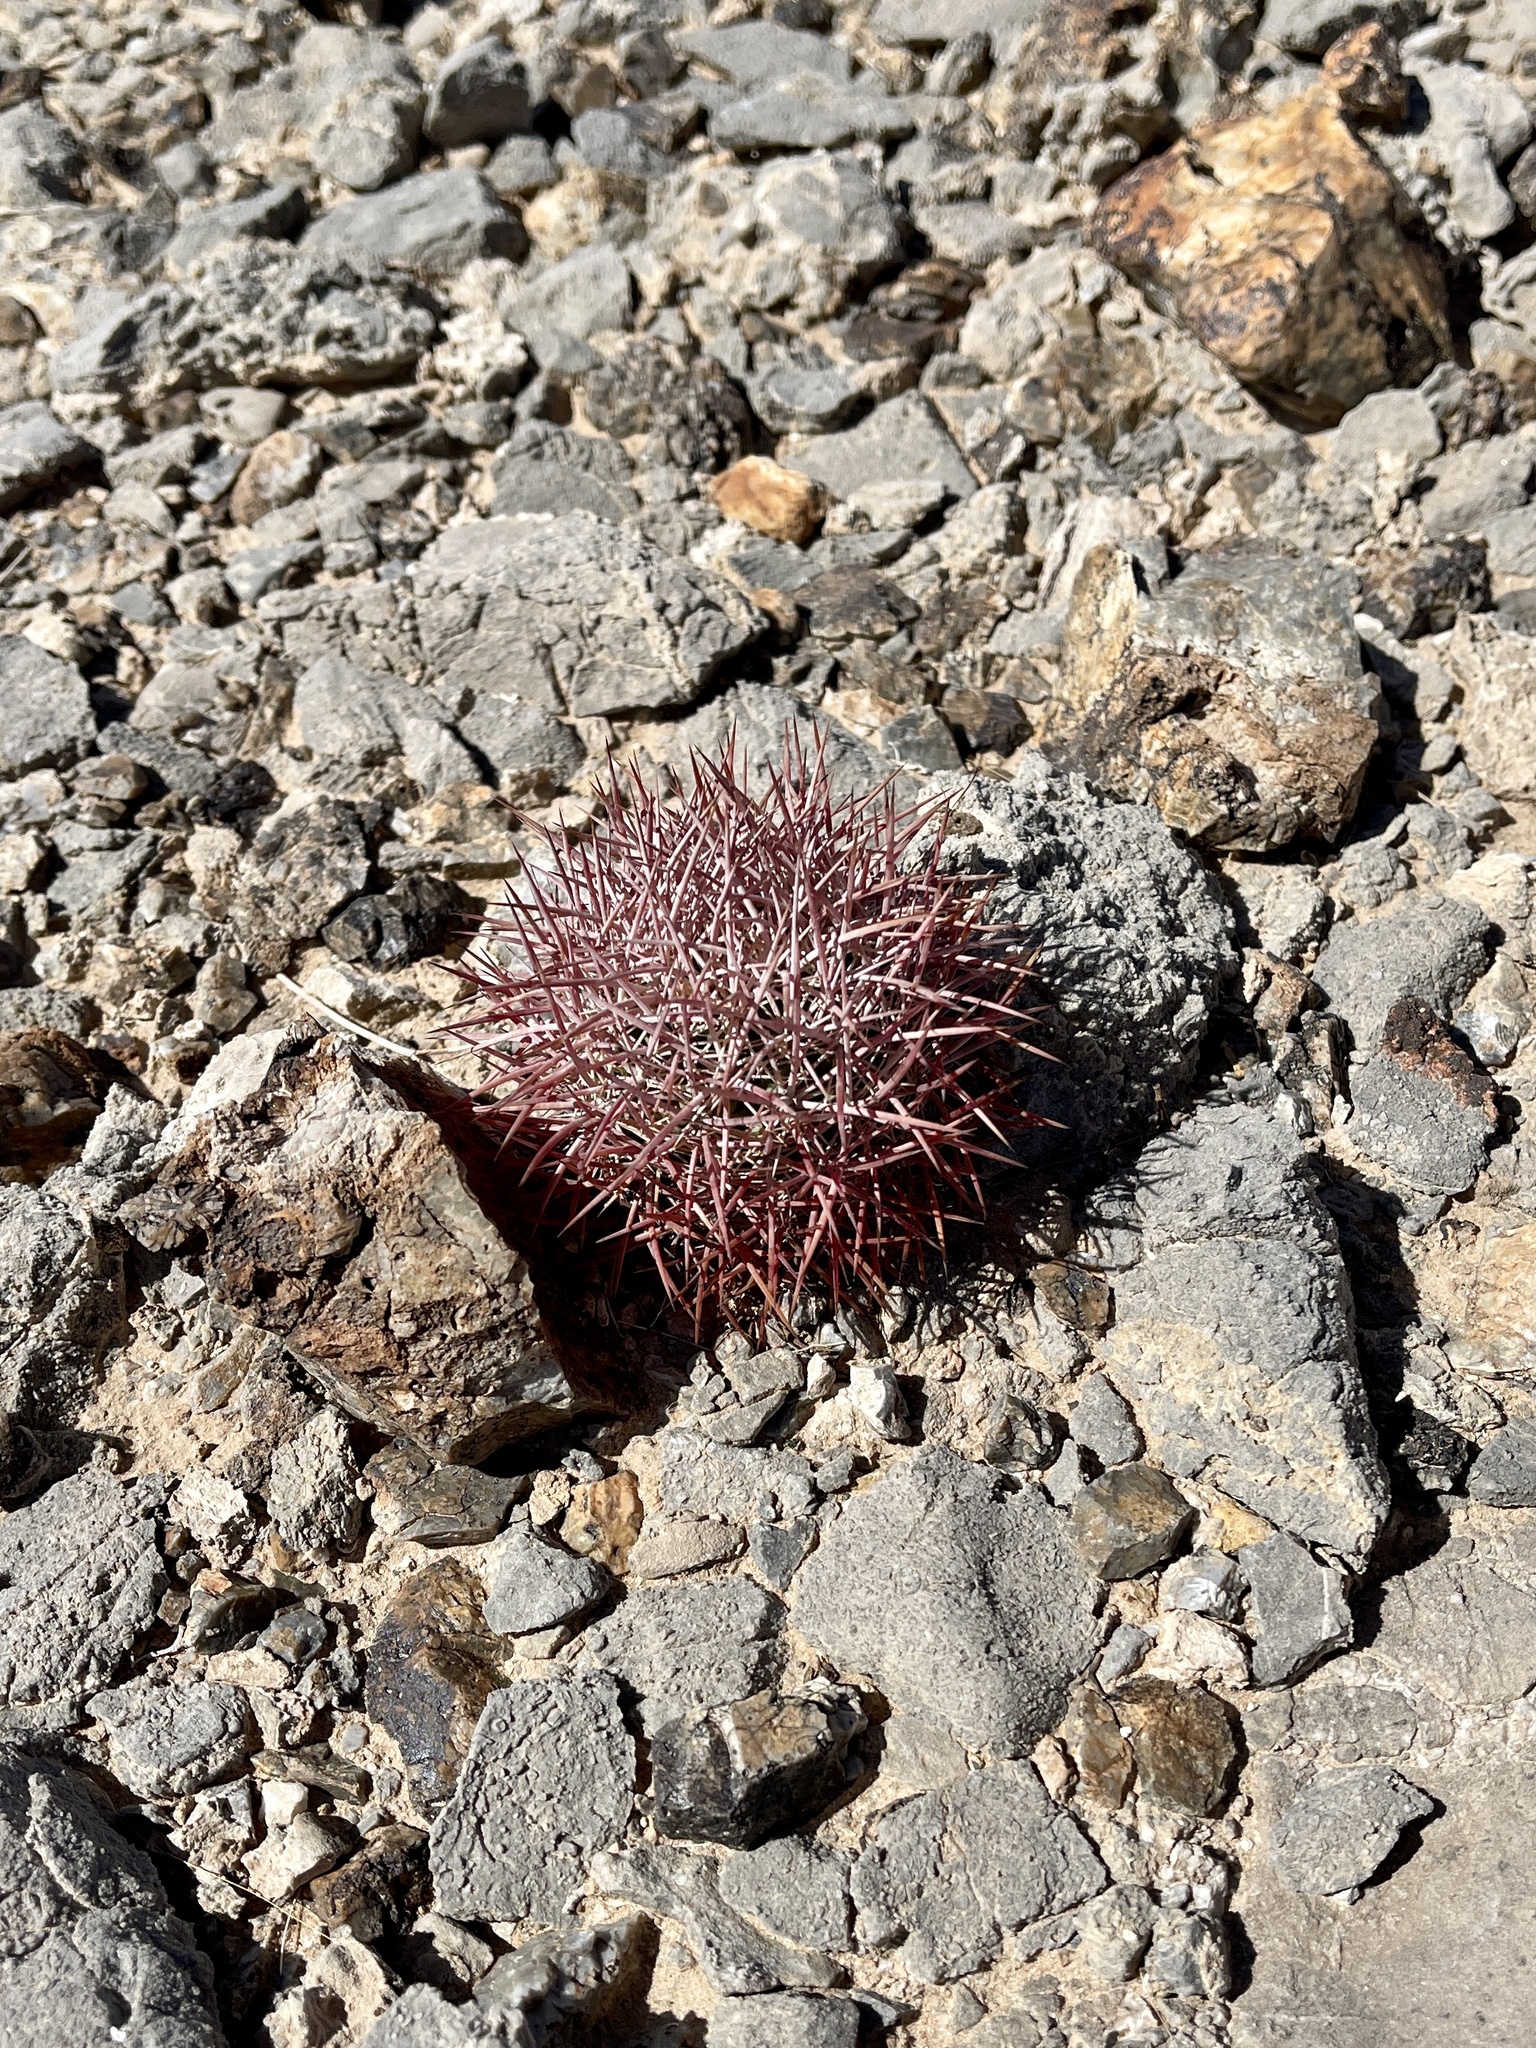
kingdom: Plantae
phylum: Tracheophyta
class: Magnoliopsida
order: Caryophyllales
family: Cactaceae
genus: Sclerocactus
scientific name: Sclerocactus johnsonii
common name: Eight-spine fishhook cactus
